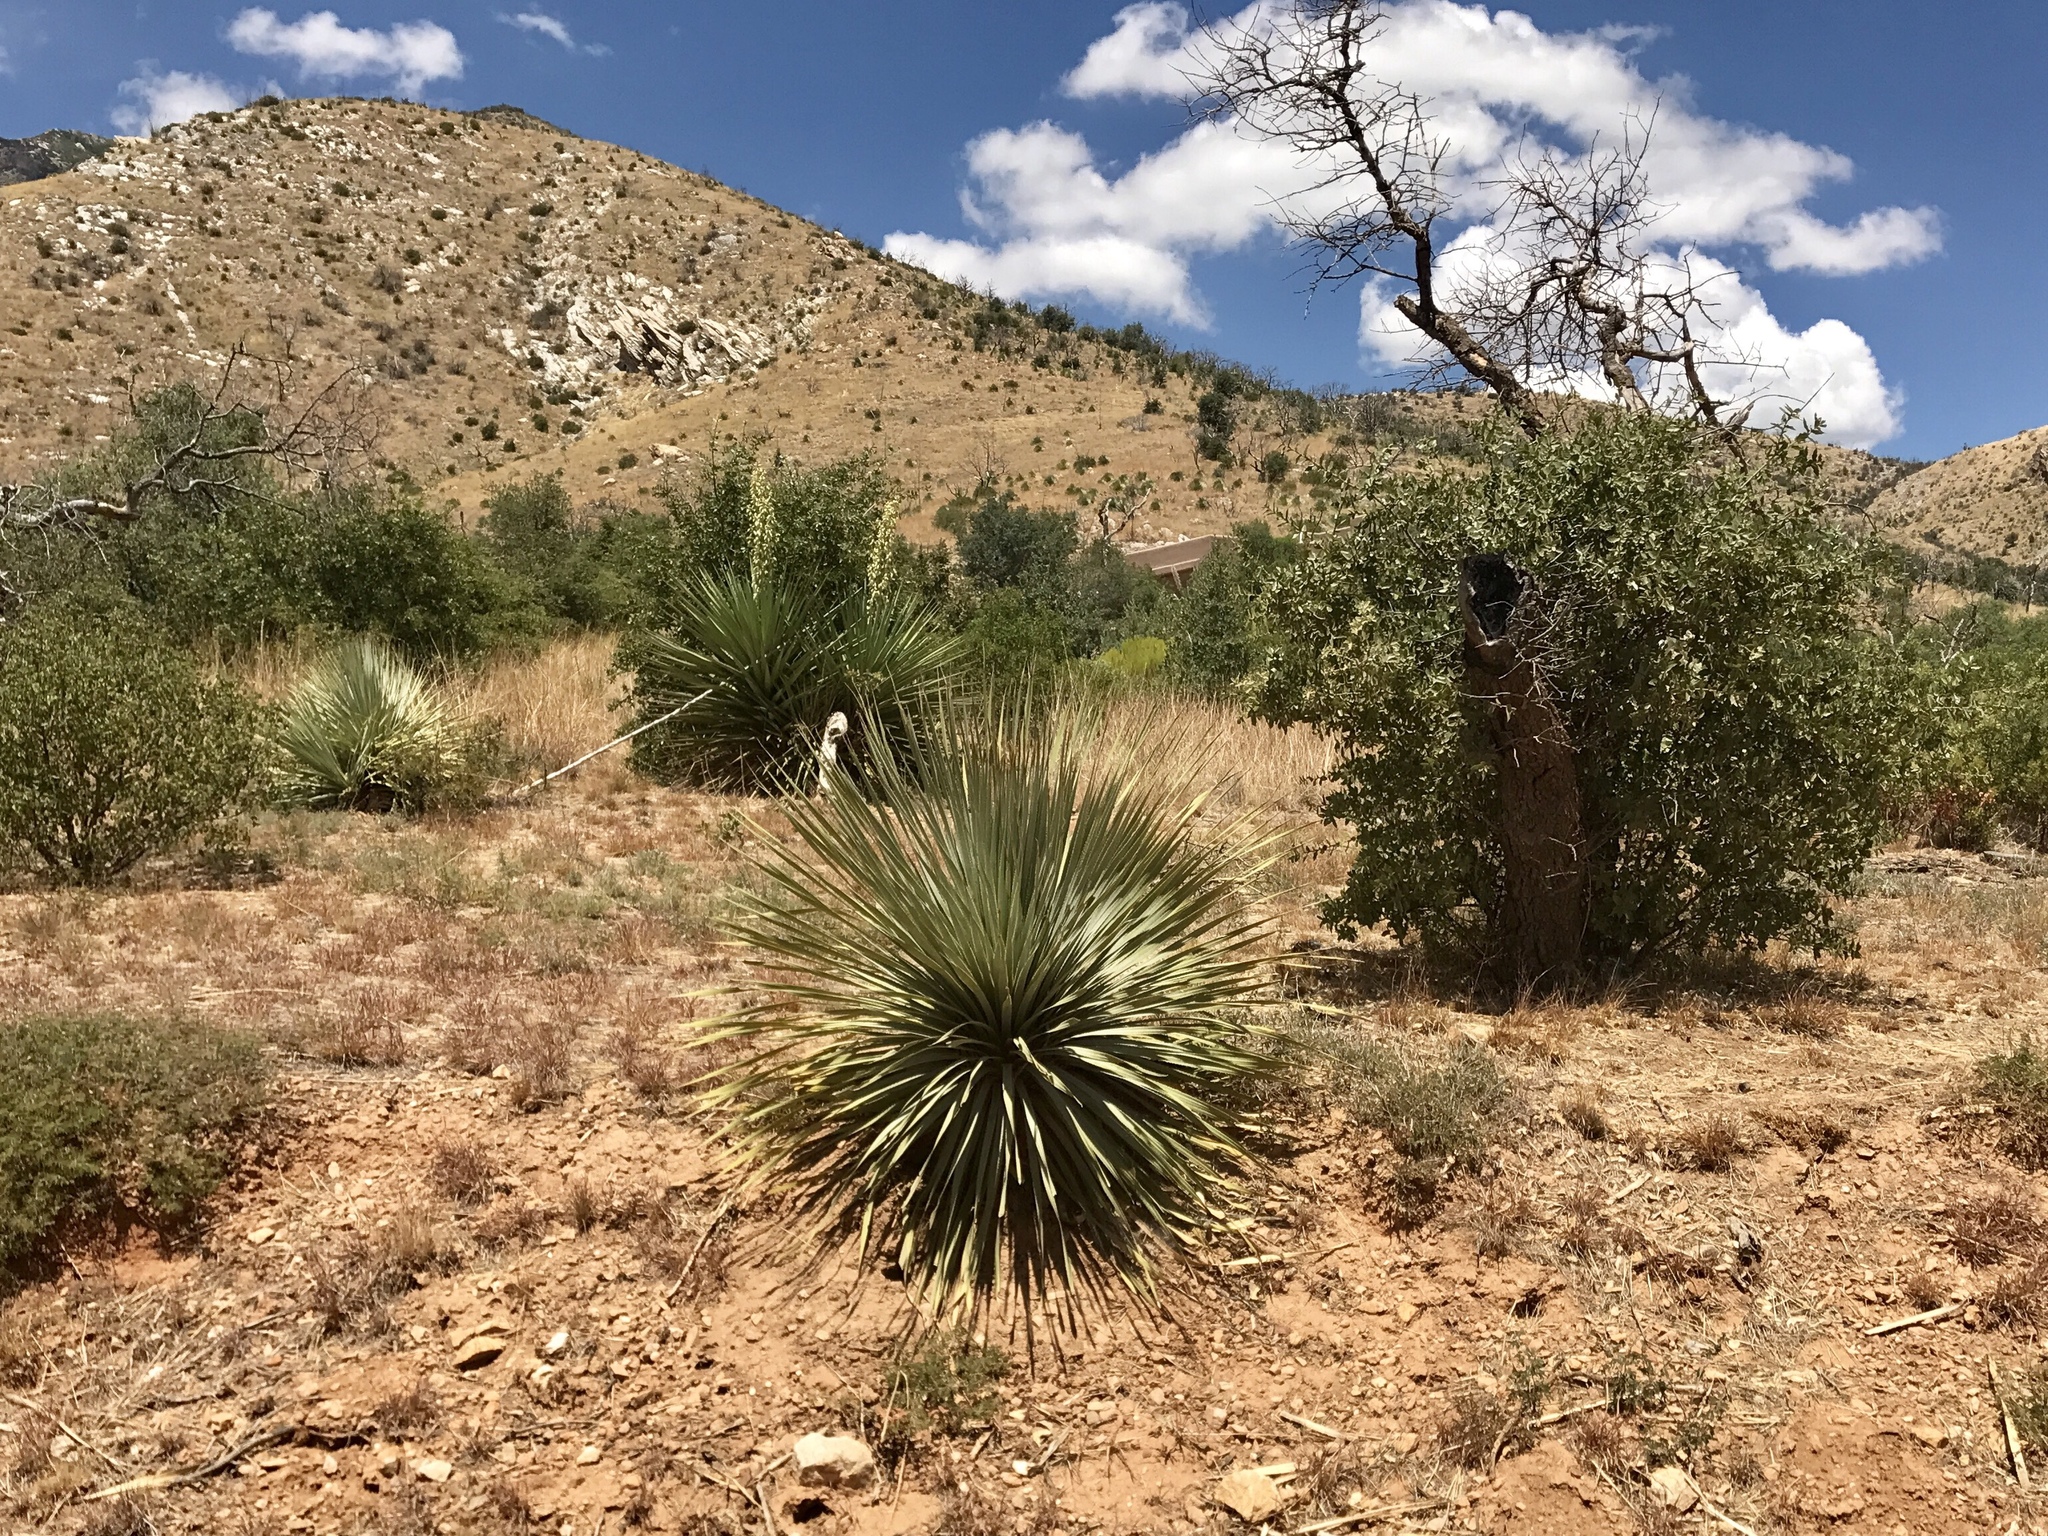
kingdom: Plantae
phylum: Tracheophyta
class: Liliopsida
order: Asparagales
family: Asparagaceae
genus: Dasylirion
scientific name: Dasylirion wheeleri
